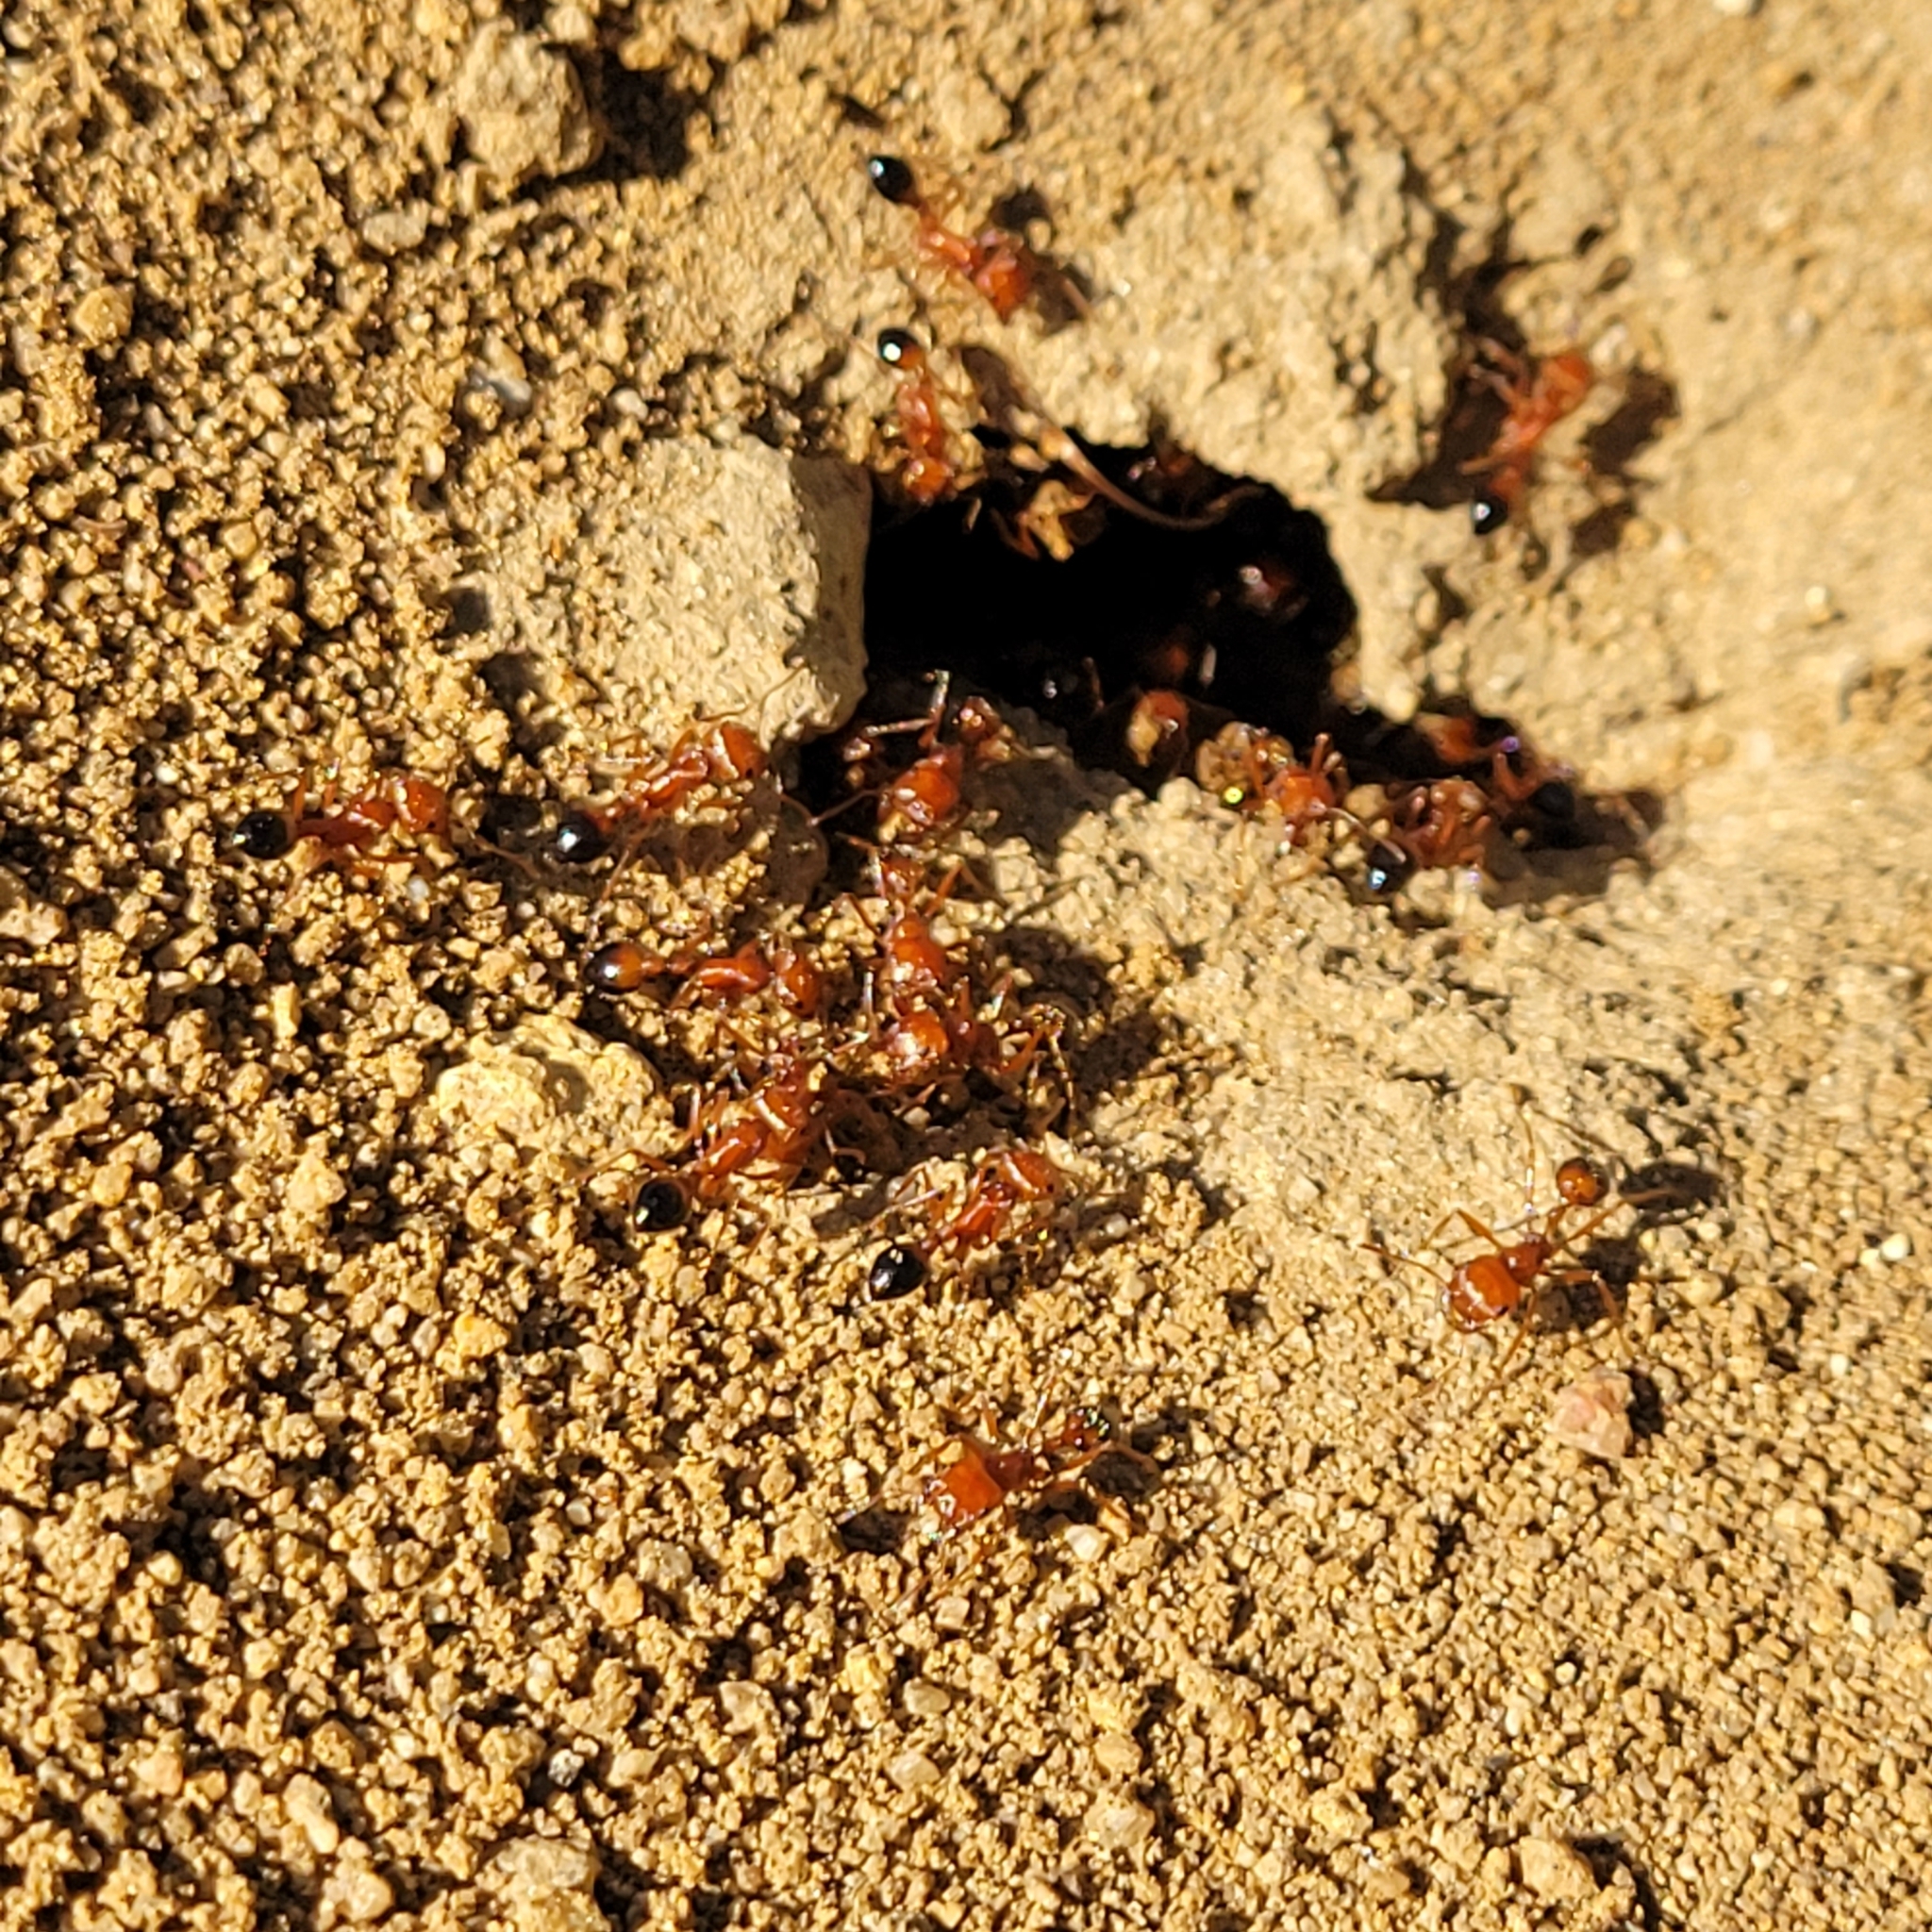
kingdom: Animalia
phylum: Arthropoda
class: Insecta
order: Hymenoptera
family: Formicidae
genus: Pogonomyrmex
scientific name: Pogonomyrmex californicus
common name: California harvester ant
